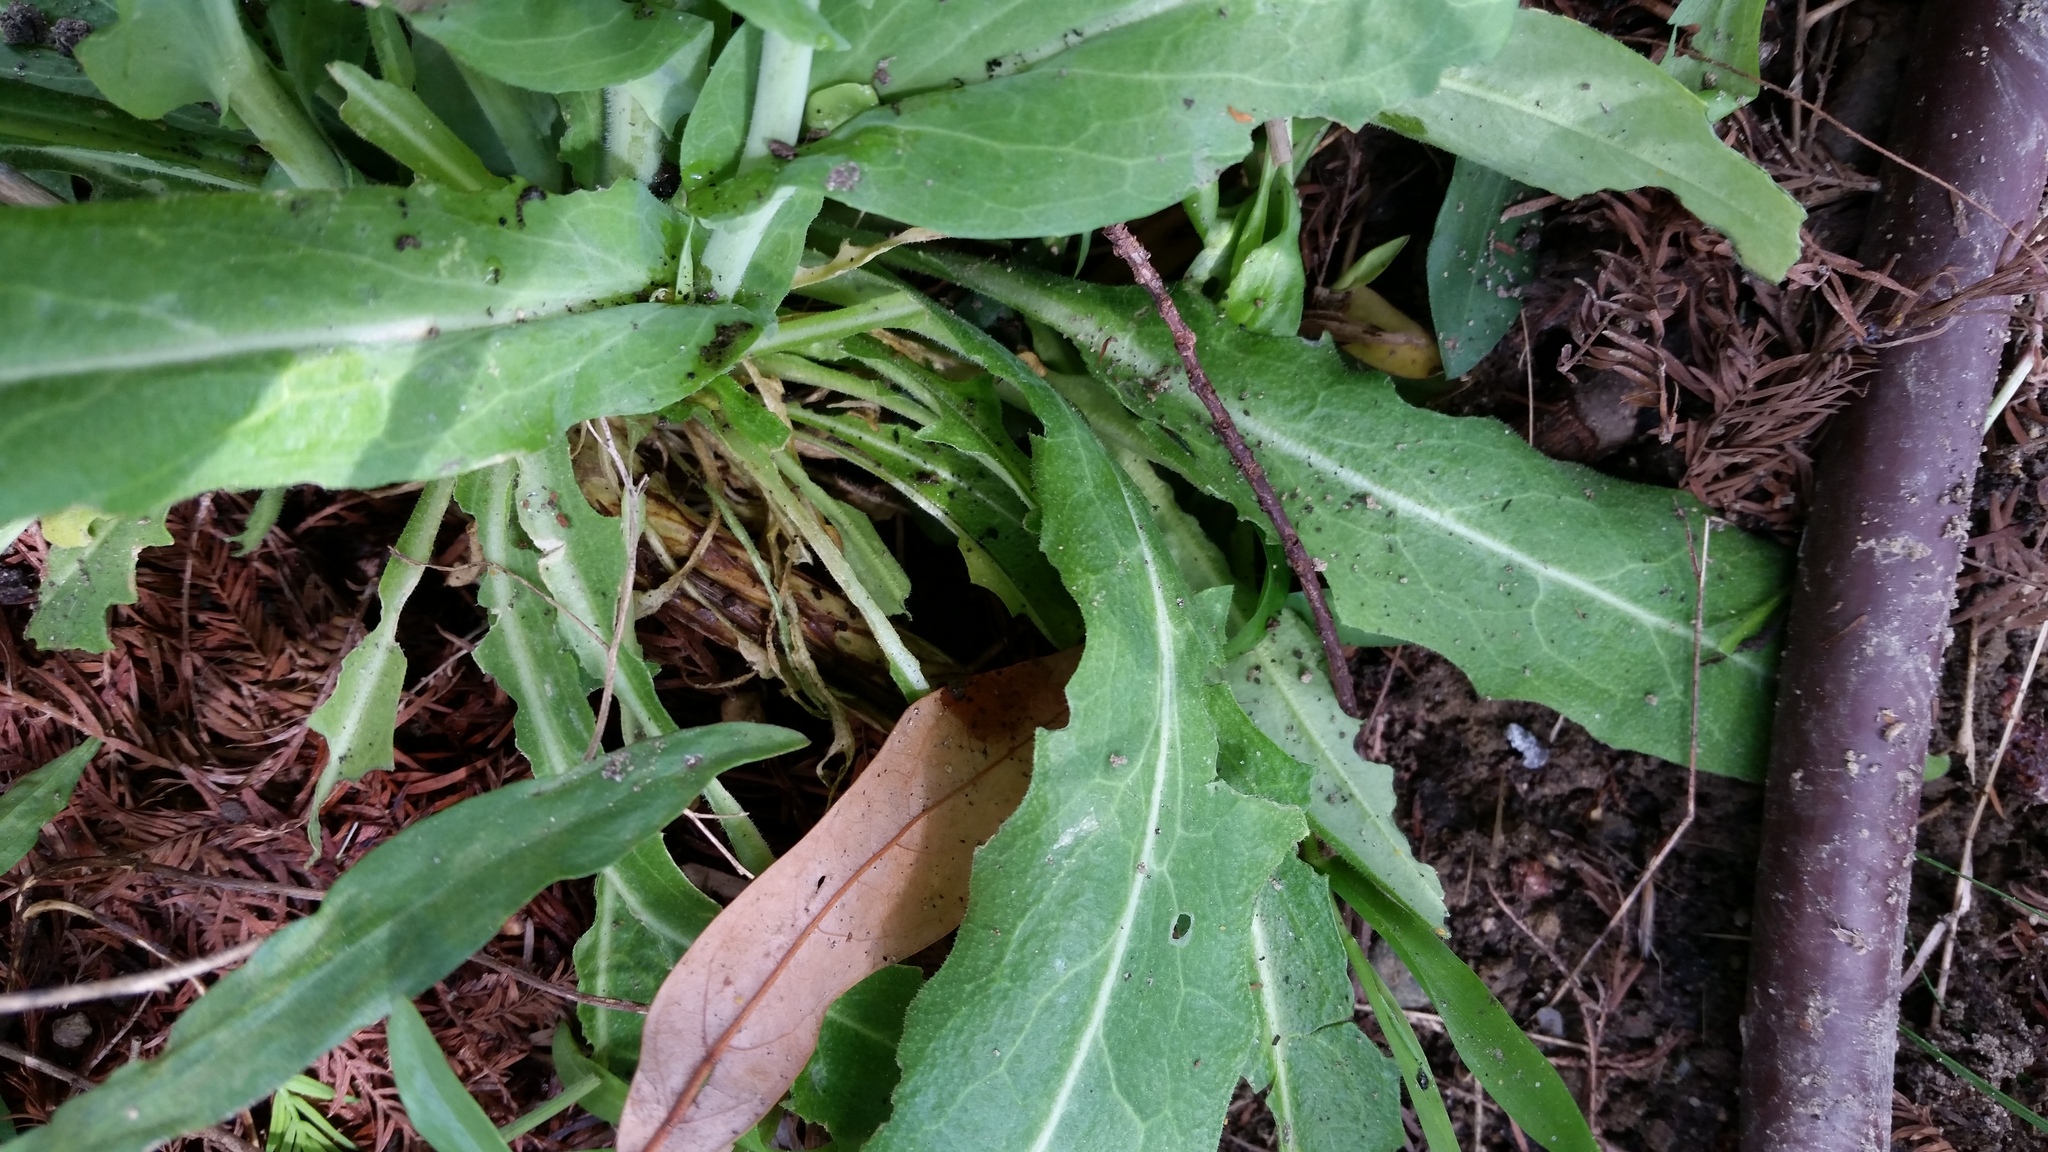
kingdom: Plantae
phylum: Tracheophyta
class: Magnoliopsida
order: Brassicales
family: Brassicaceae
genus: Turritis
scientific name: Turritis glabra
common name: Tower rockcress
